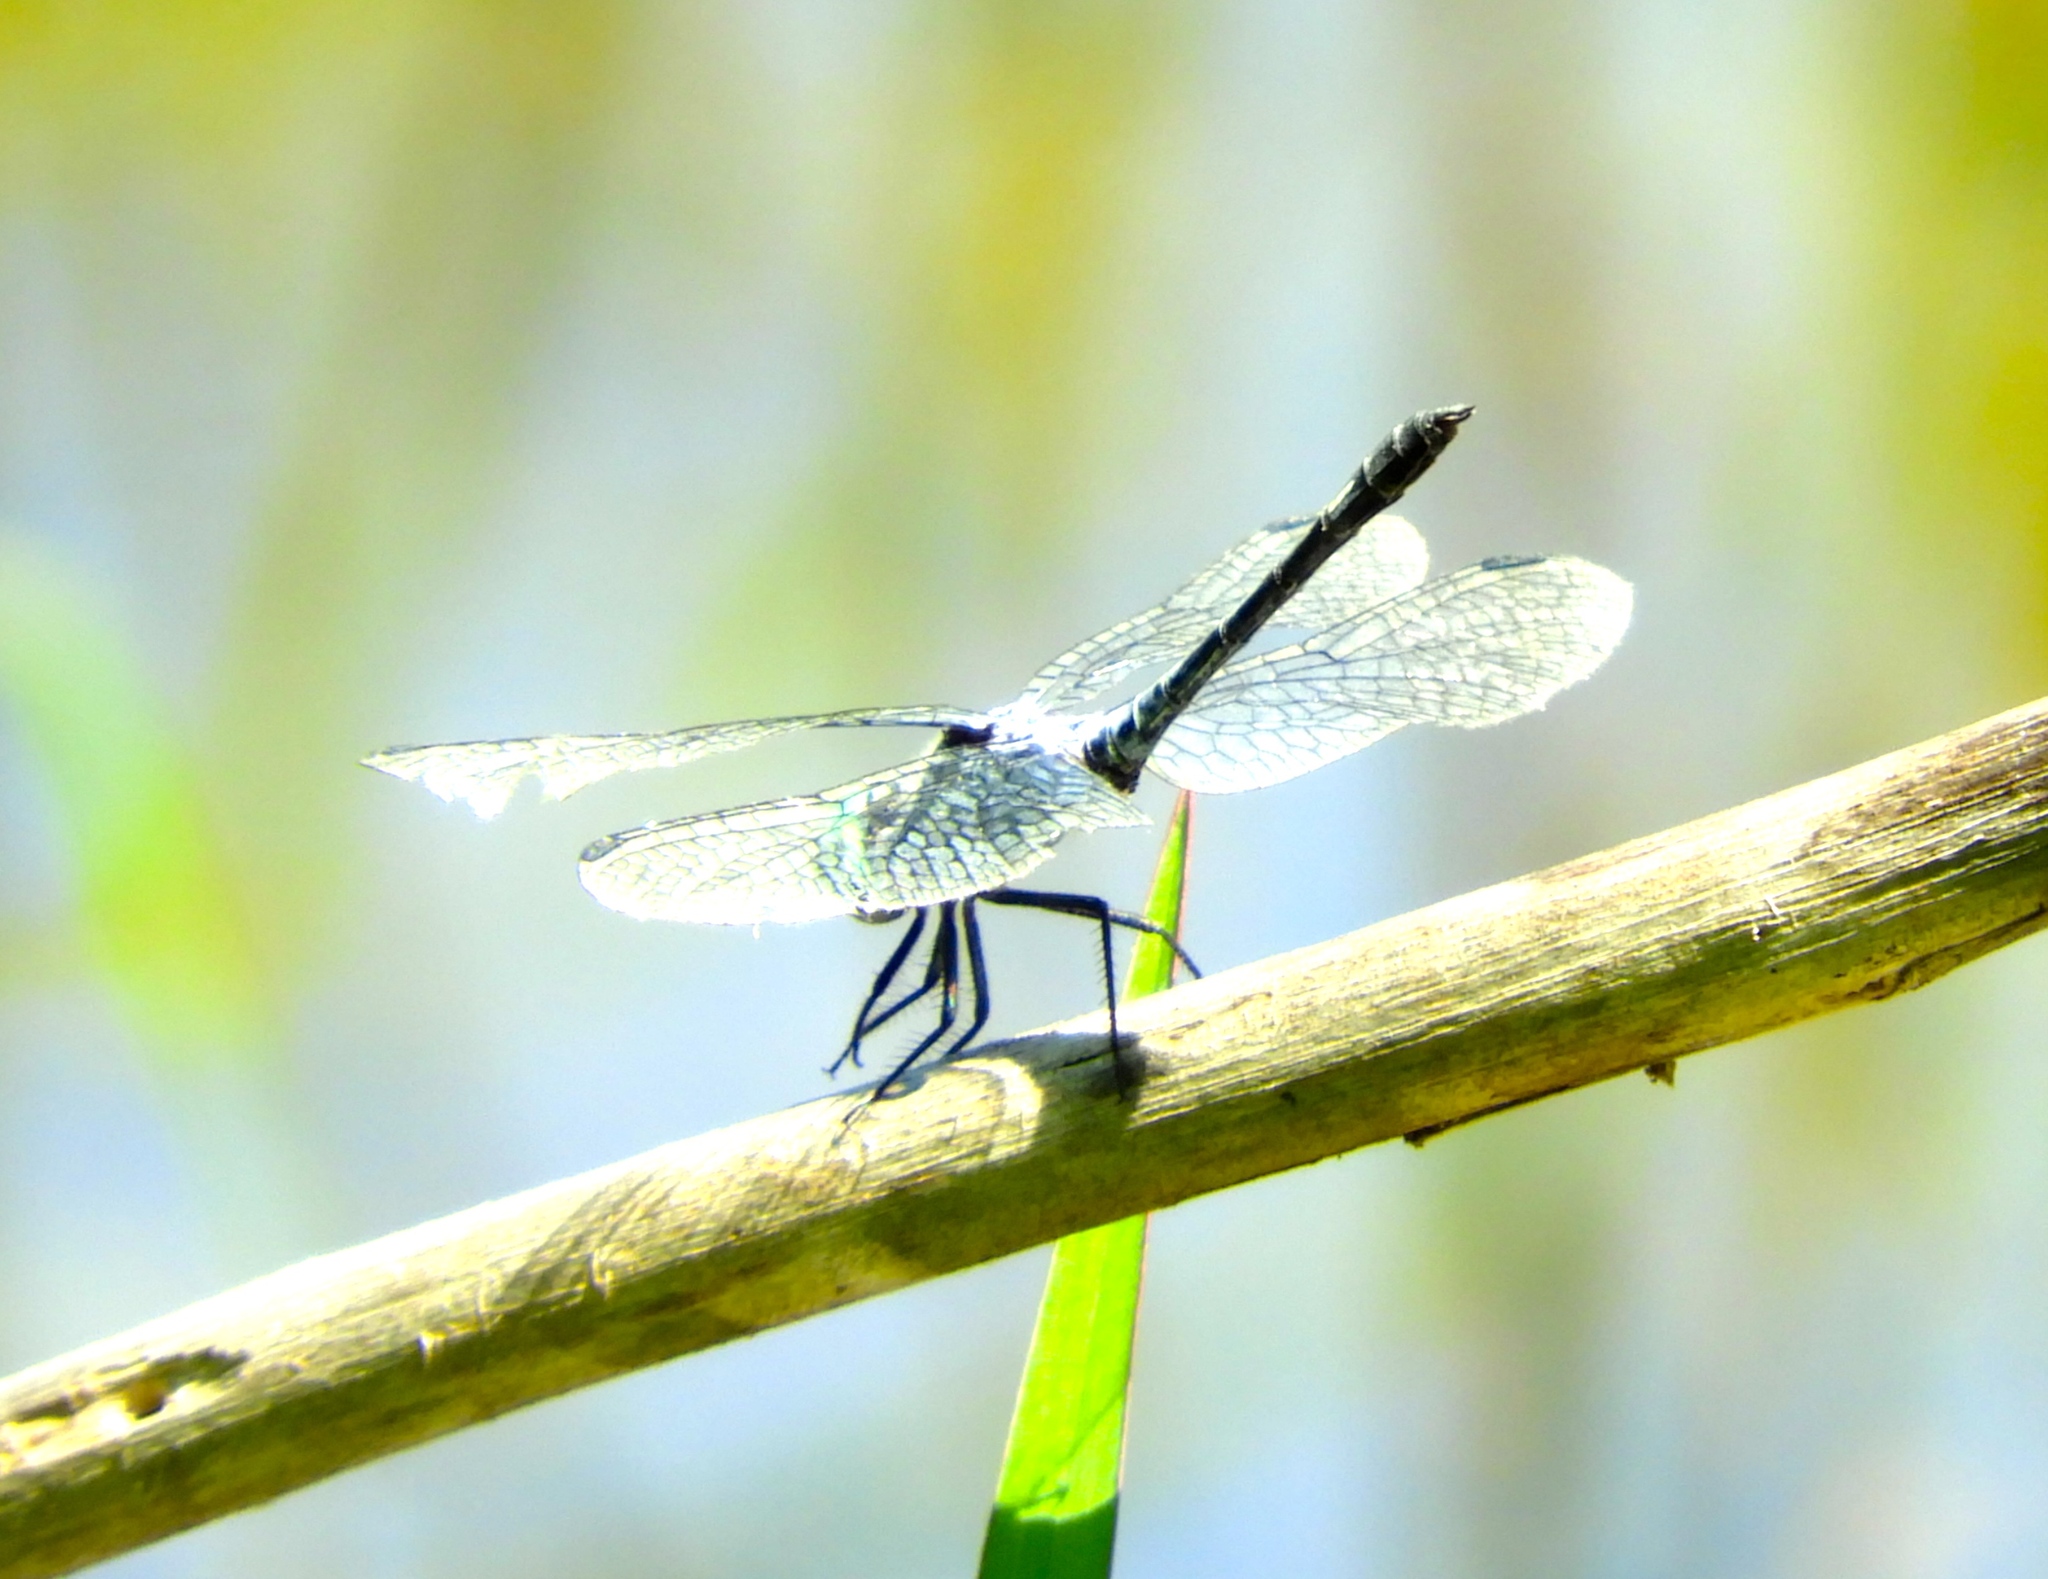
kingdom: Animalia
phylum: Arthropoda
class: Insecta
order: Odonata
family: Libellulidae
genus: Micrathyria
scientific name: Micrathyria aequalis
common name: Spot-tailed dasher
